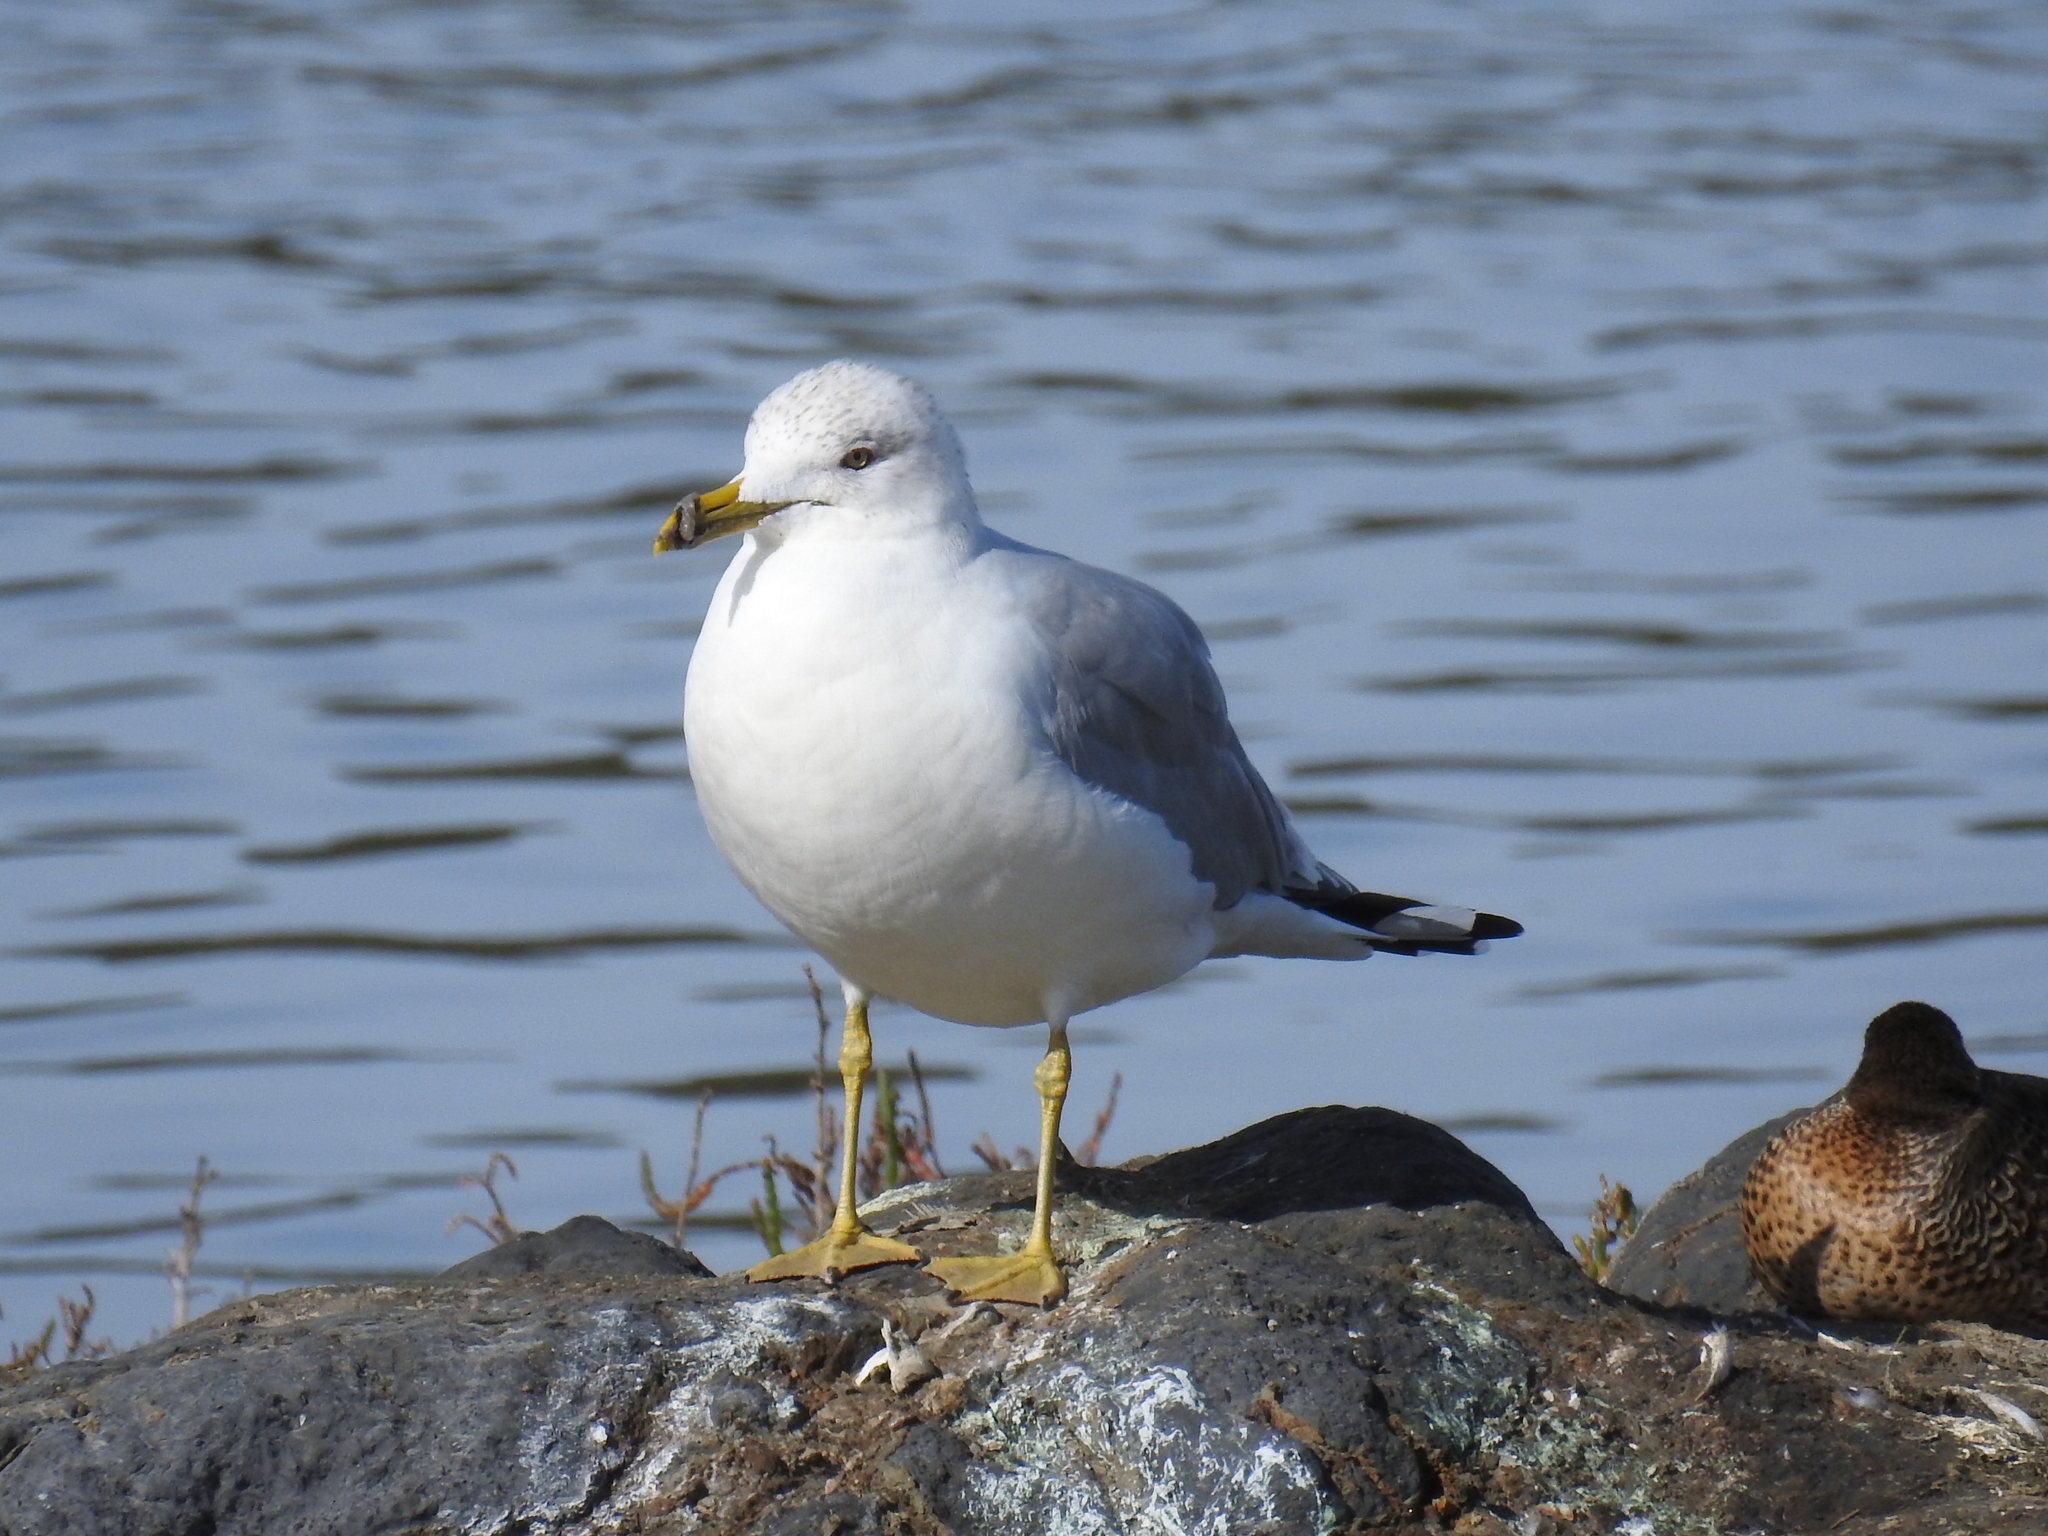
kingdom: Animalia
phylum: Chordata
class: Aves
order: Charadriiformes
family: Laridae
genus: Larus
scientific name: Larus delawarensis
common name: Ring-billed gull
